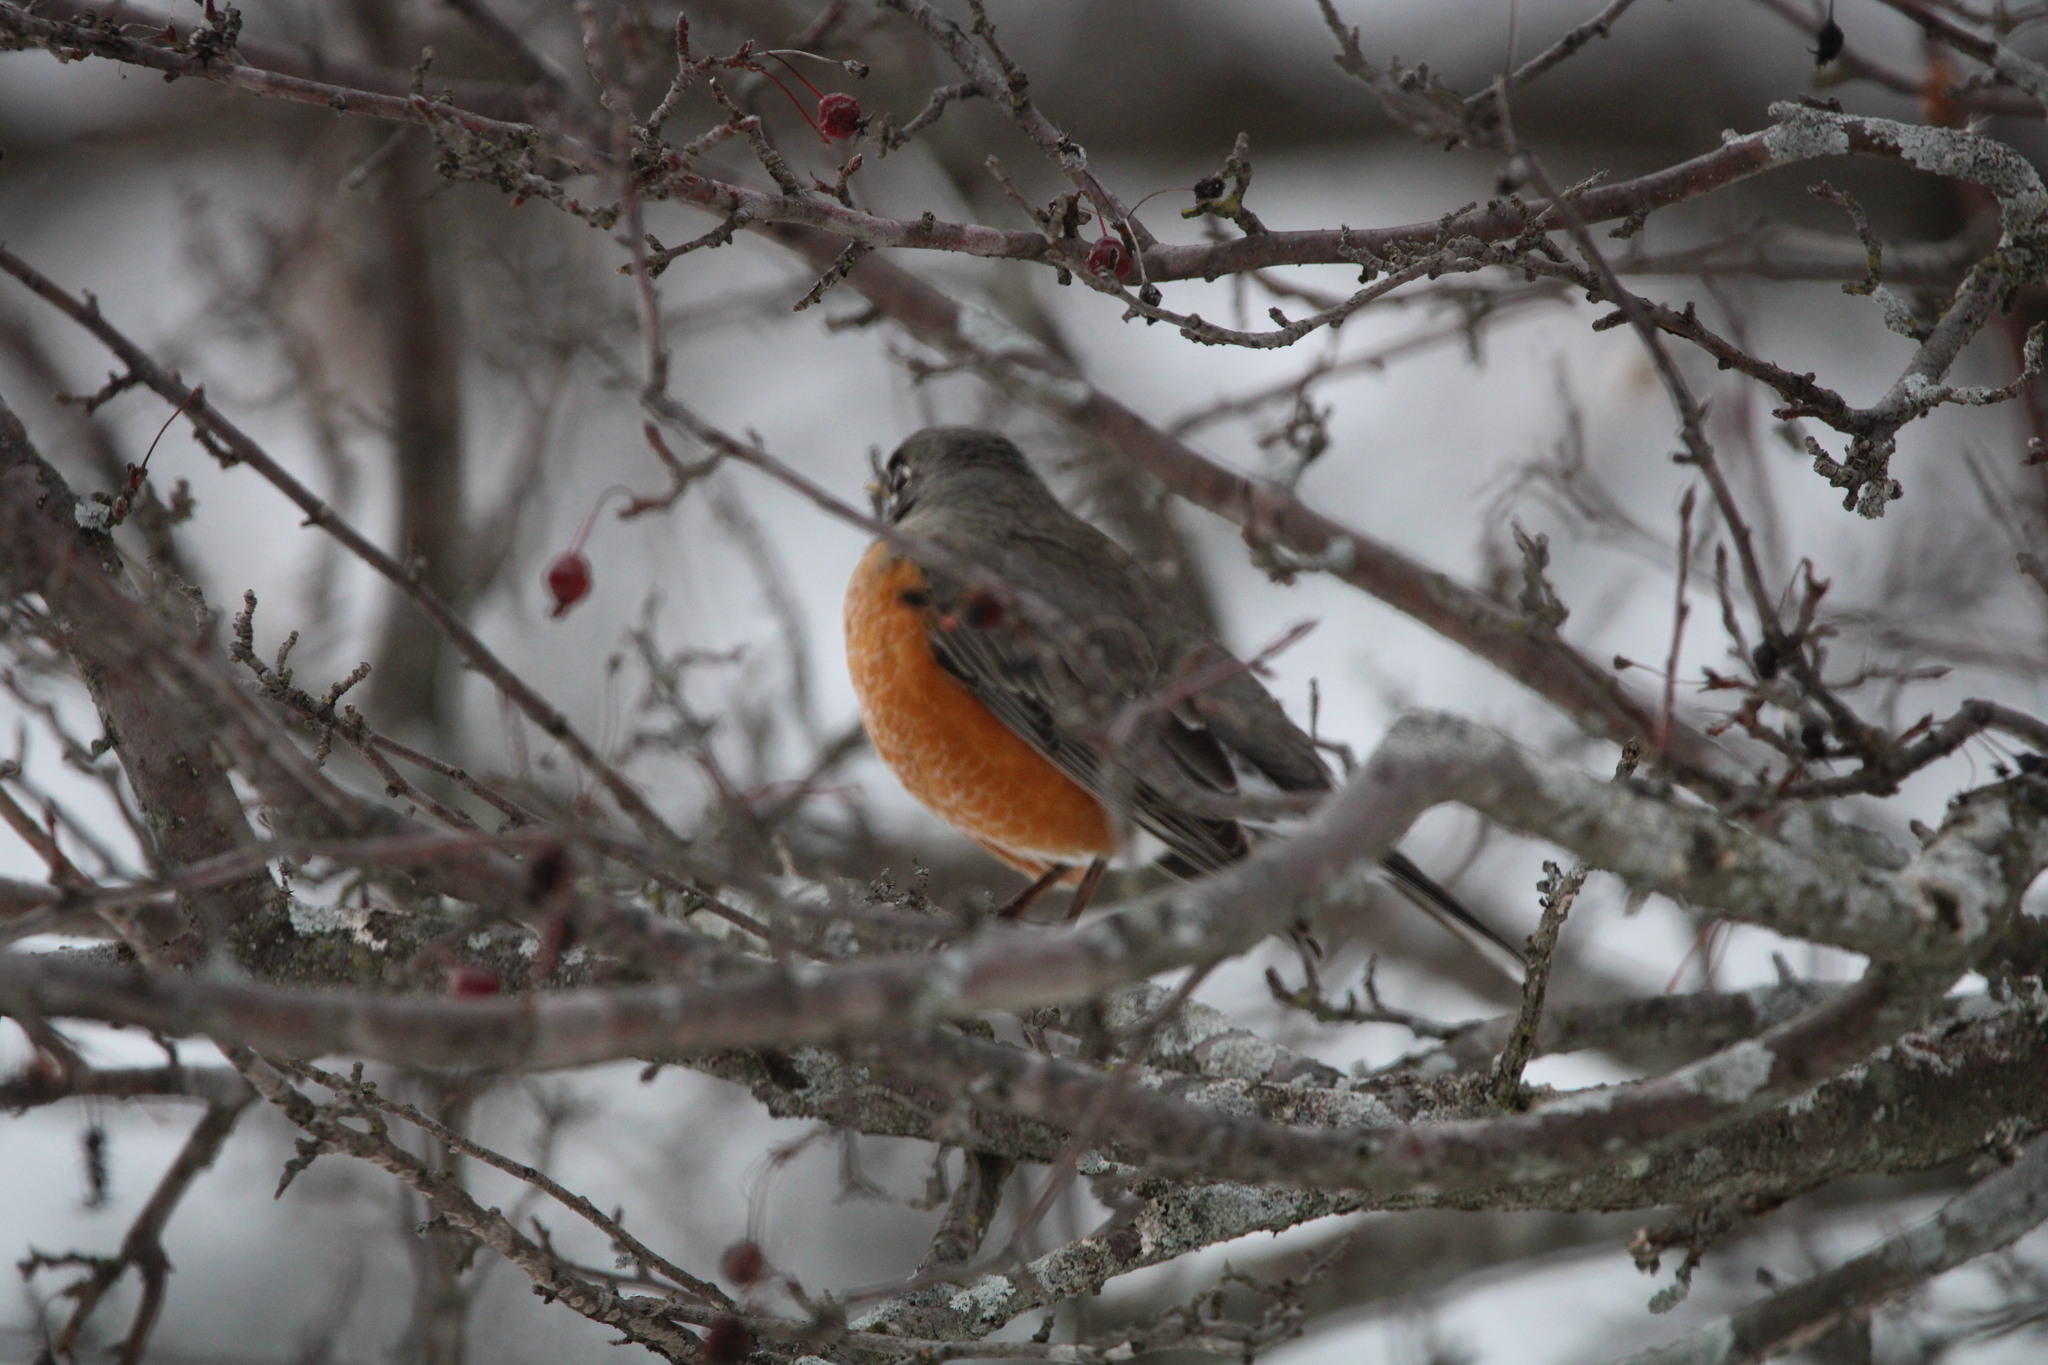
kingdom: Animalia
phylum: Chordata
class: Aves
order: Passeriformes
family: Turdidae
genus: Turdus
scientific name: Turdus migratorius
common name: American robin
